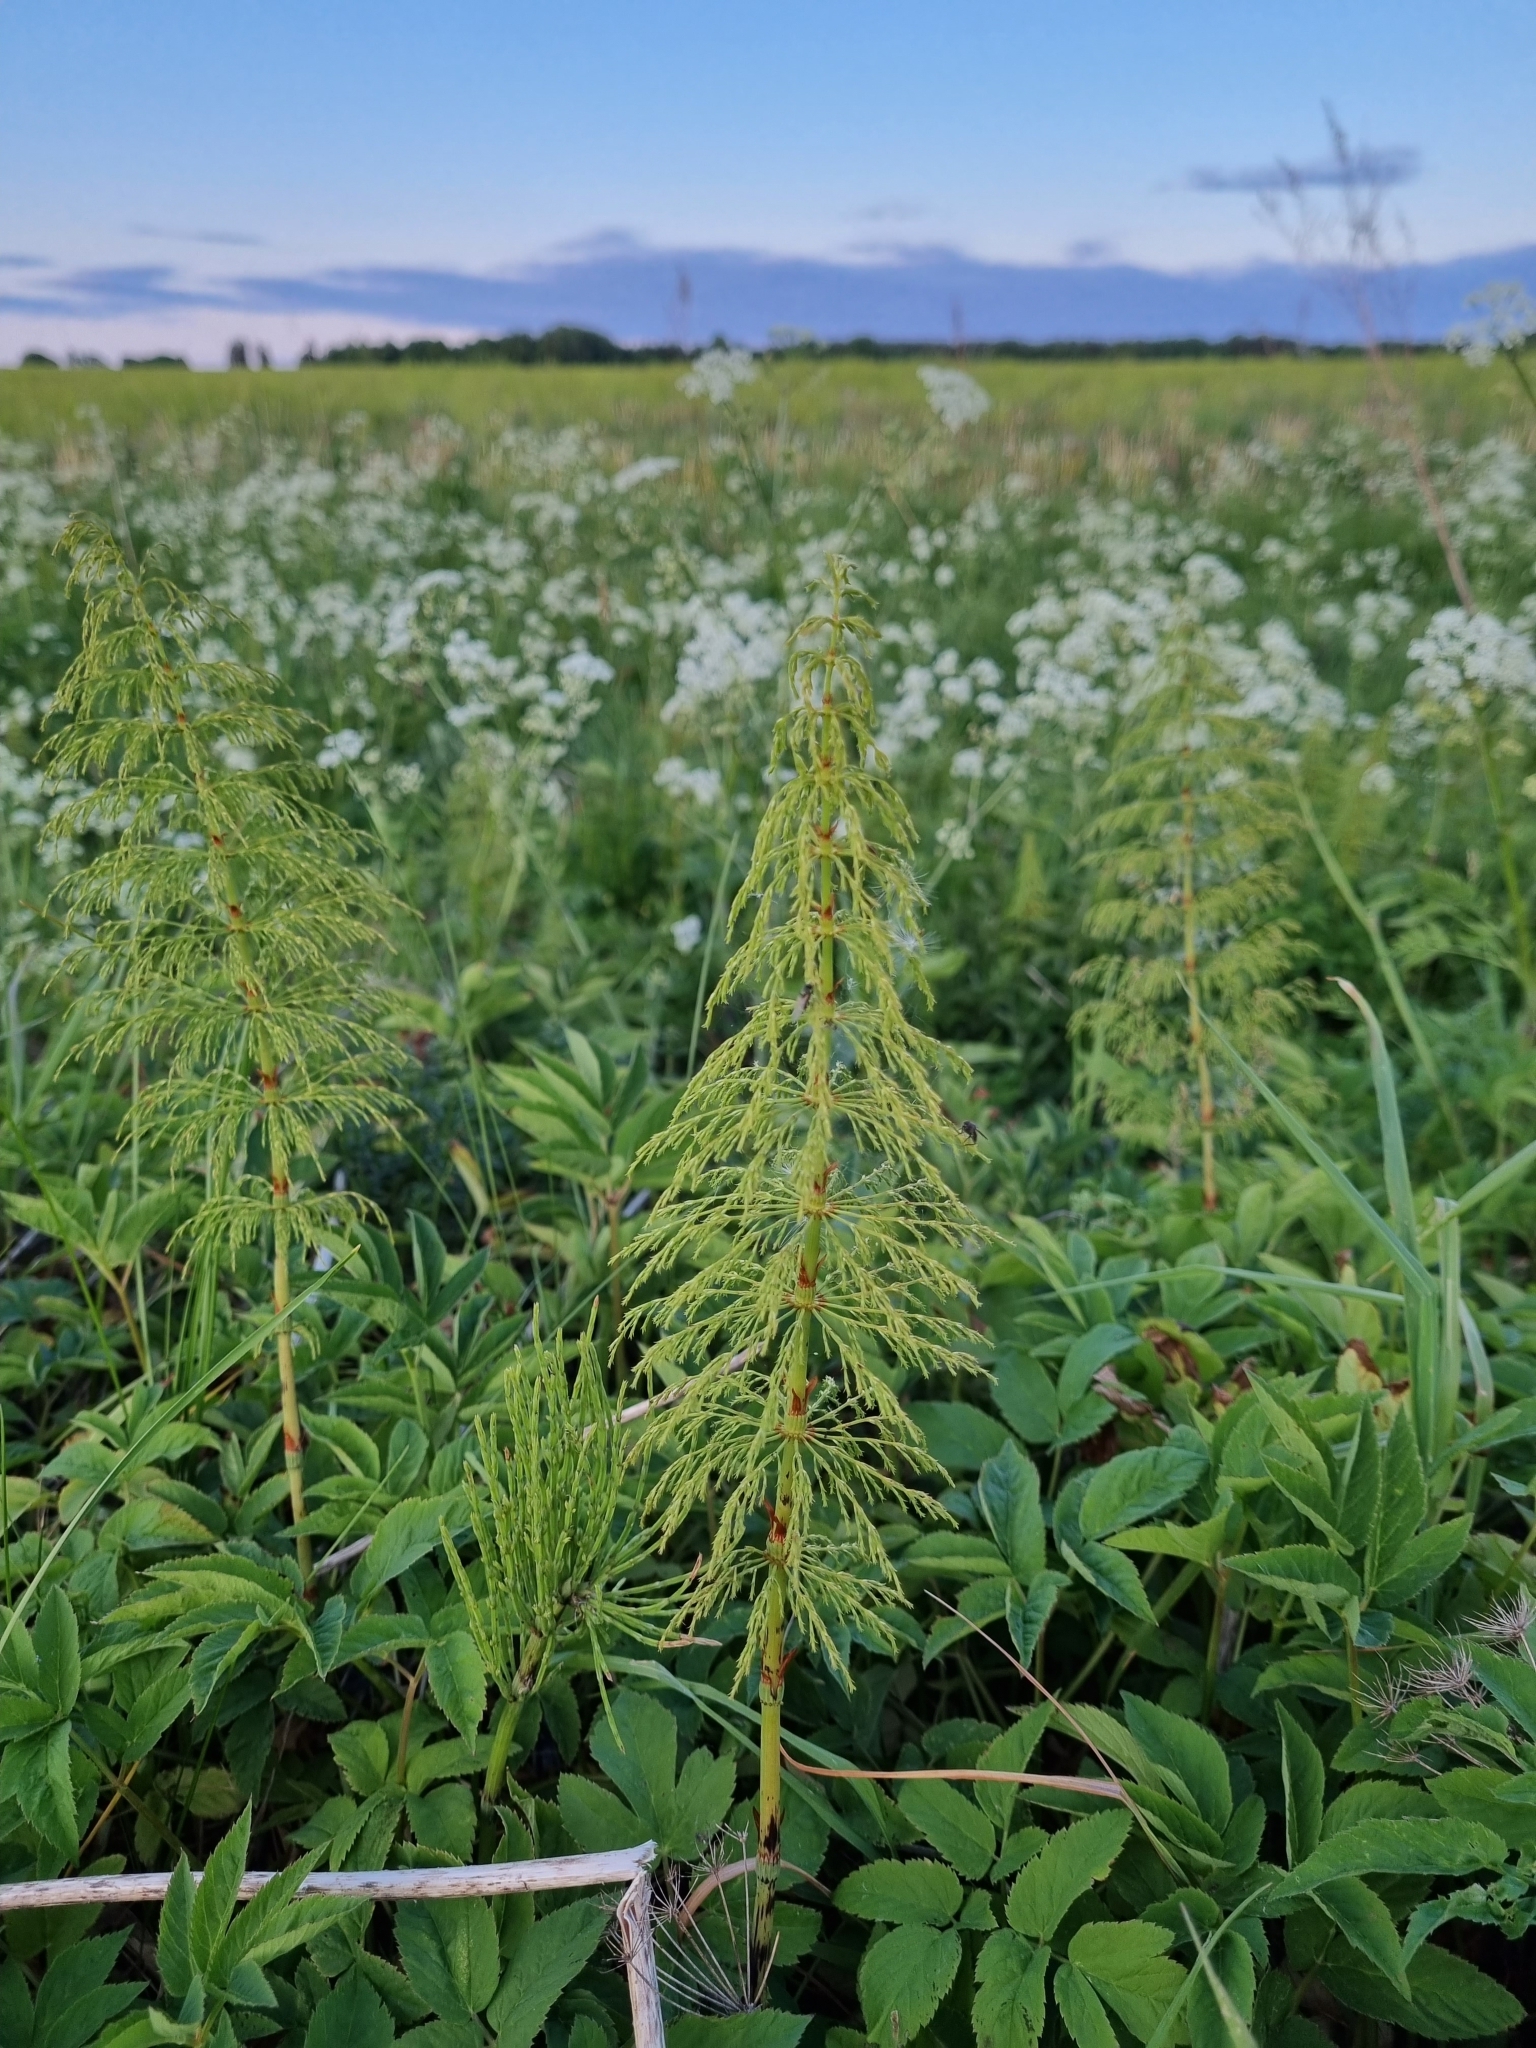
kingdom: Plantae
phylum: Tracheophyta
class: Polypodiopsida
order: Equisetales
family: Equisetaceae
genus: Equisetum
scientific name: Equisetum sylvaticum
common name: Wood horsetail
